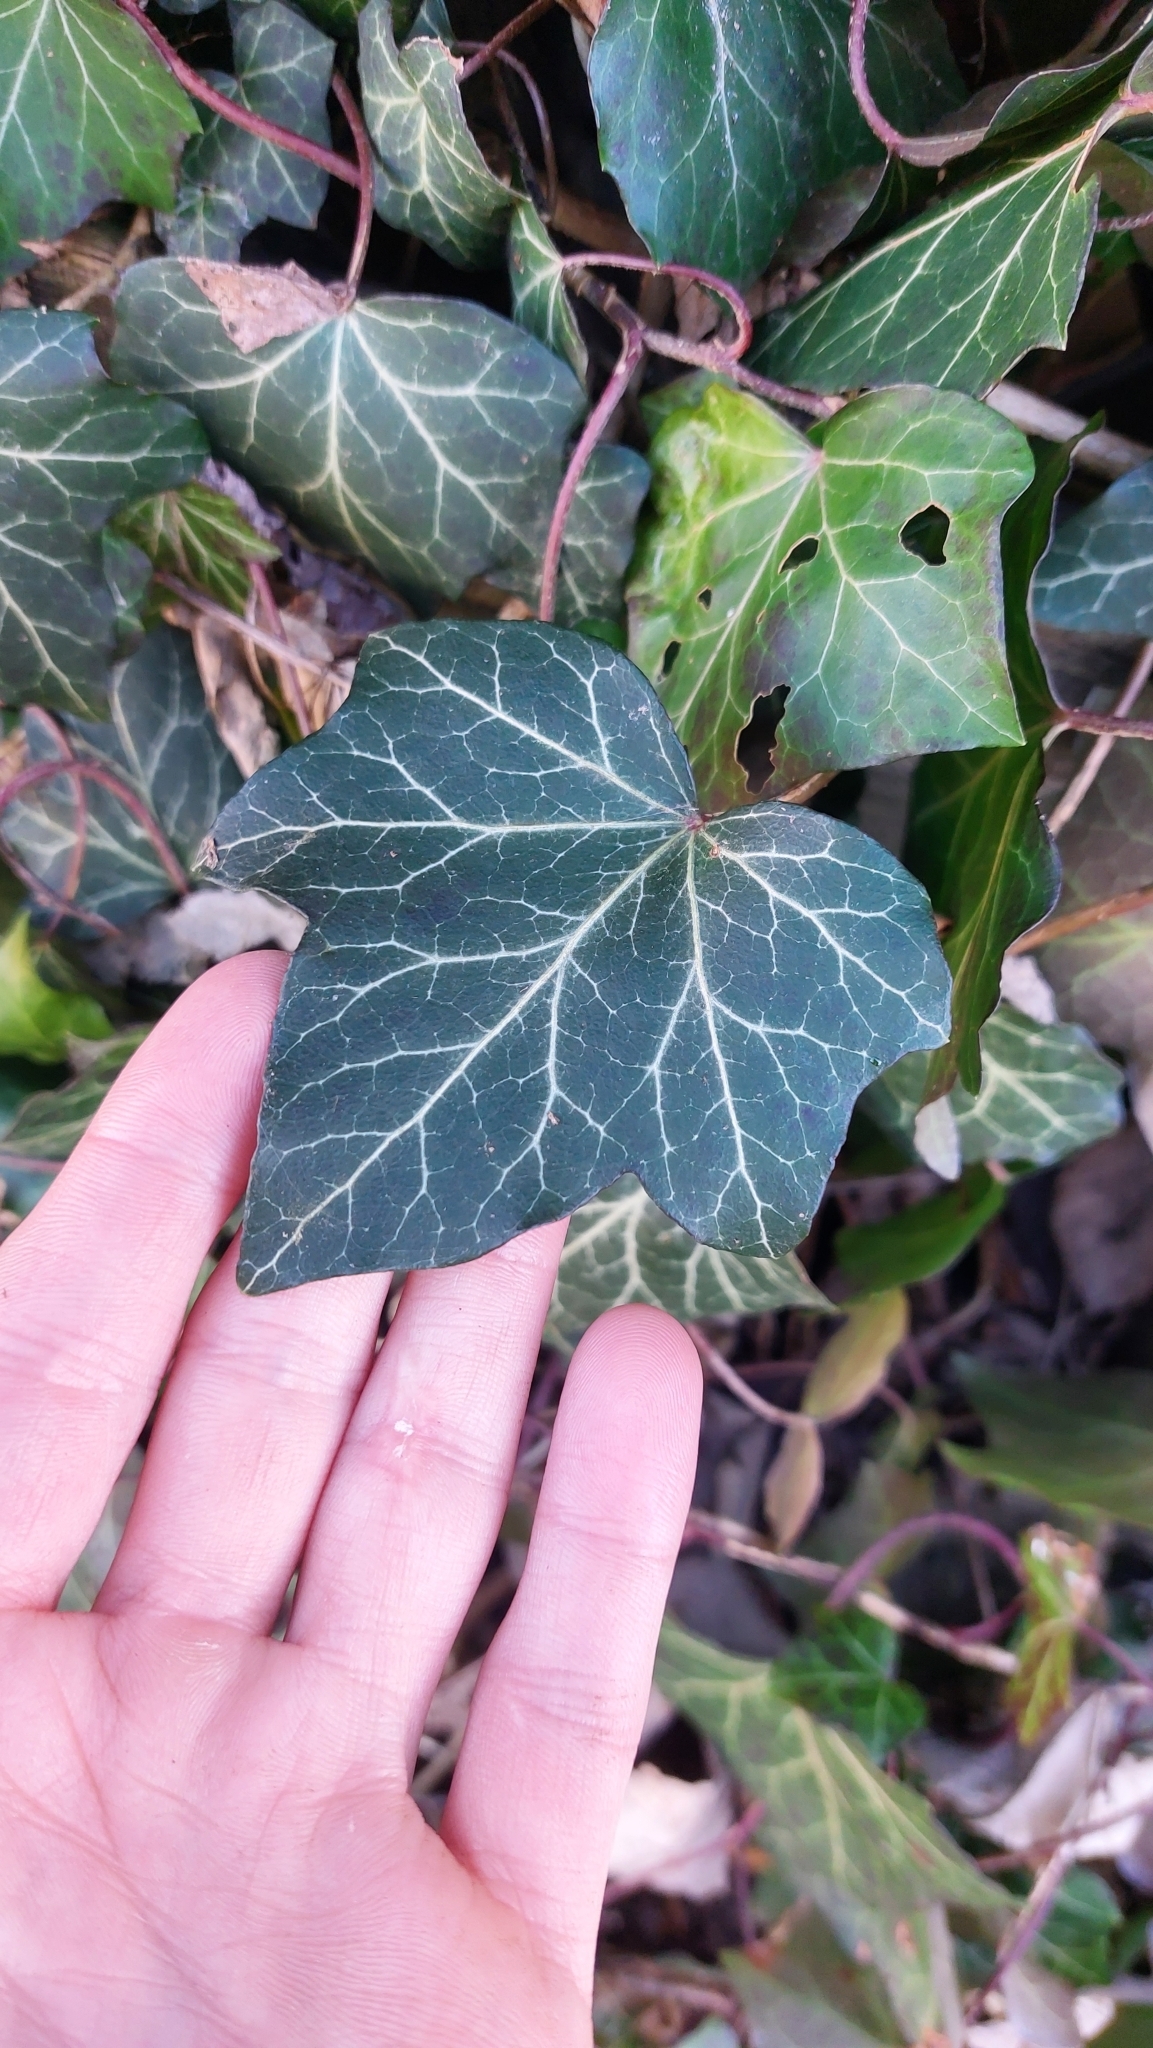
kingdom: Plantae
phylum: Tracheophyta
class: Magnoliopsida
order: Apiales
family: Araliaceae
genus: Hedera
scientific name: Hedera helix
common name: Ivy
